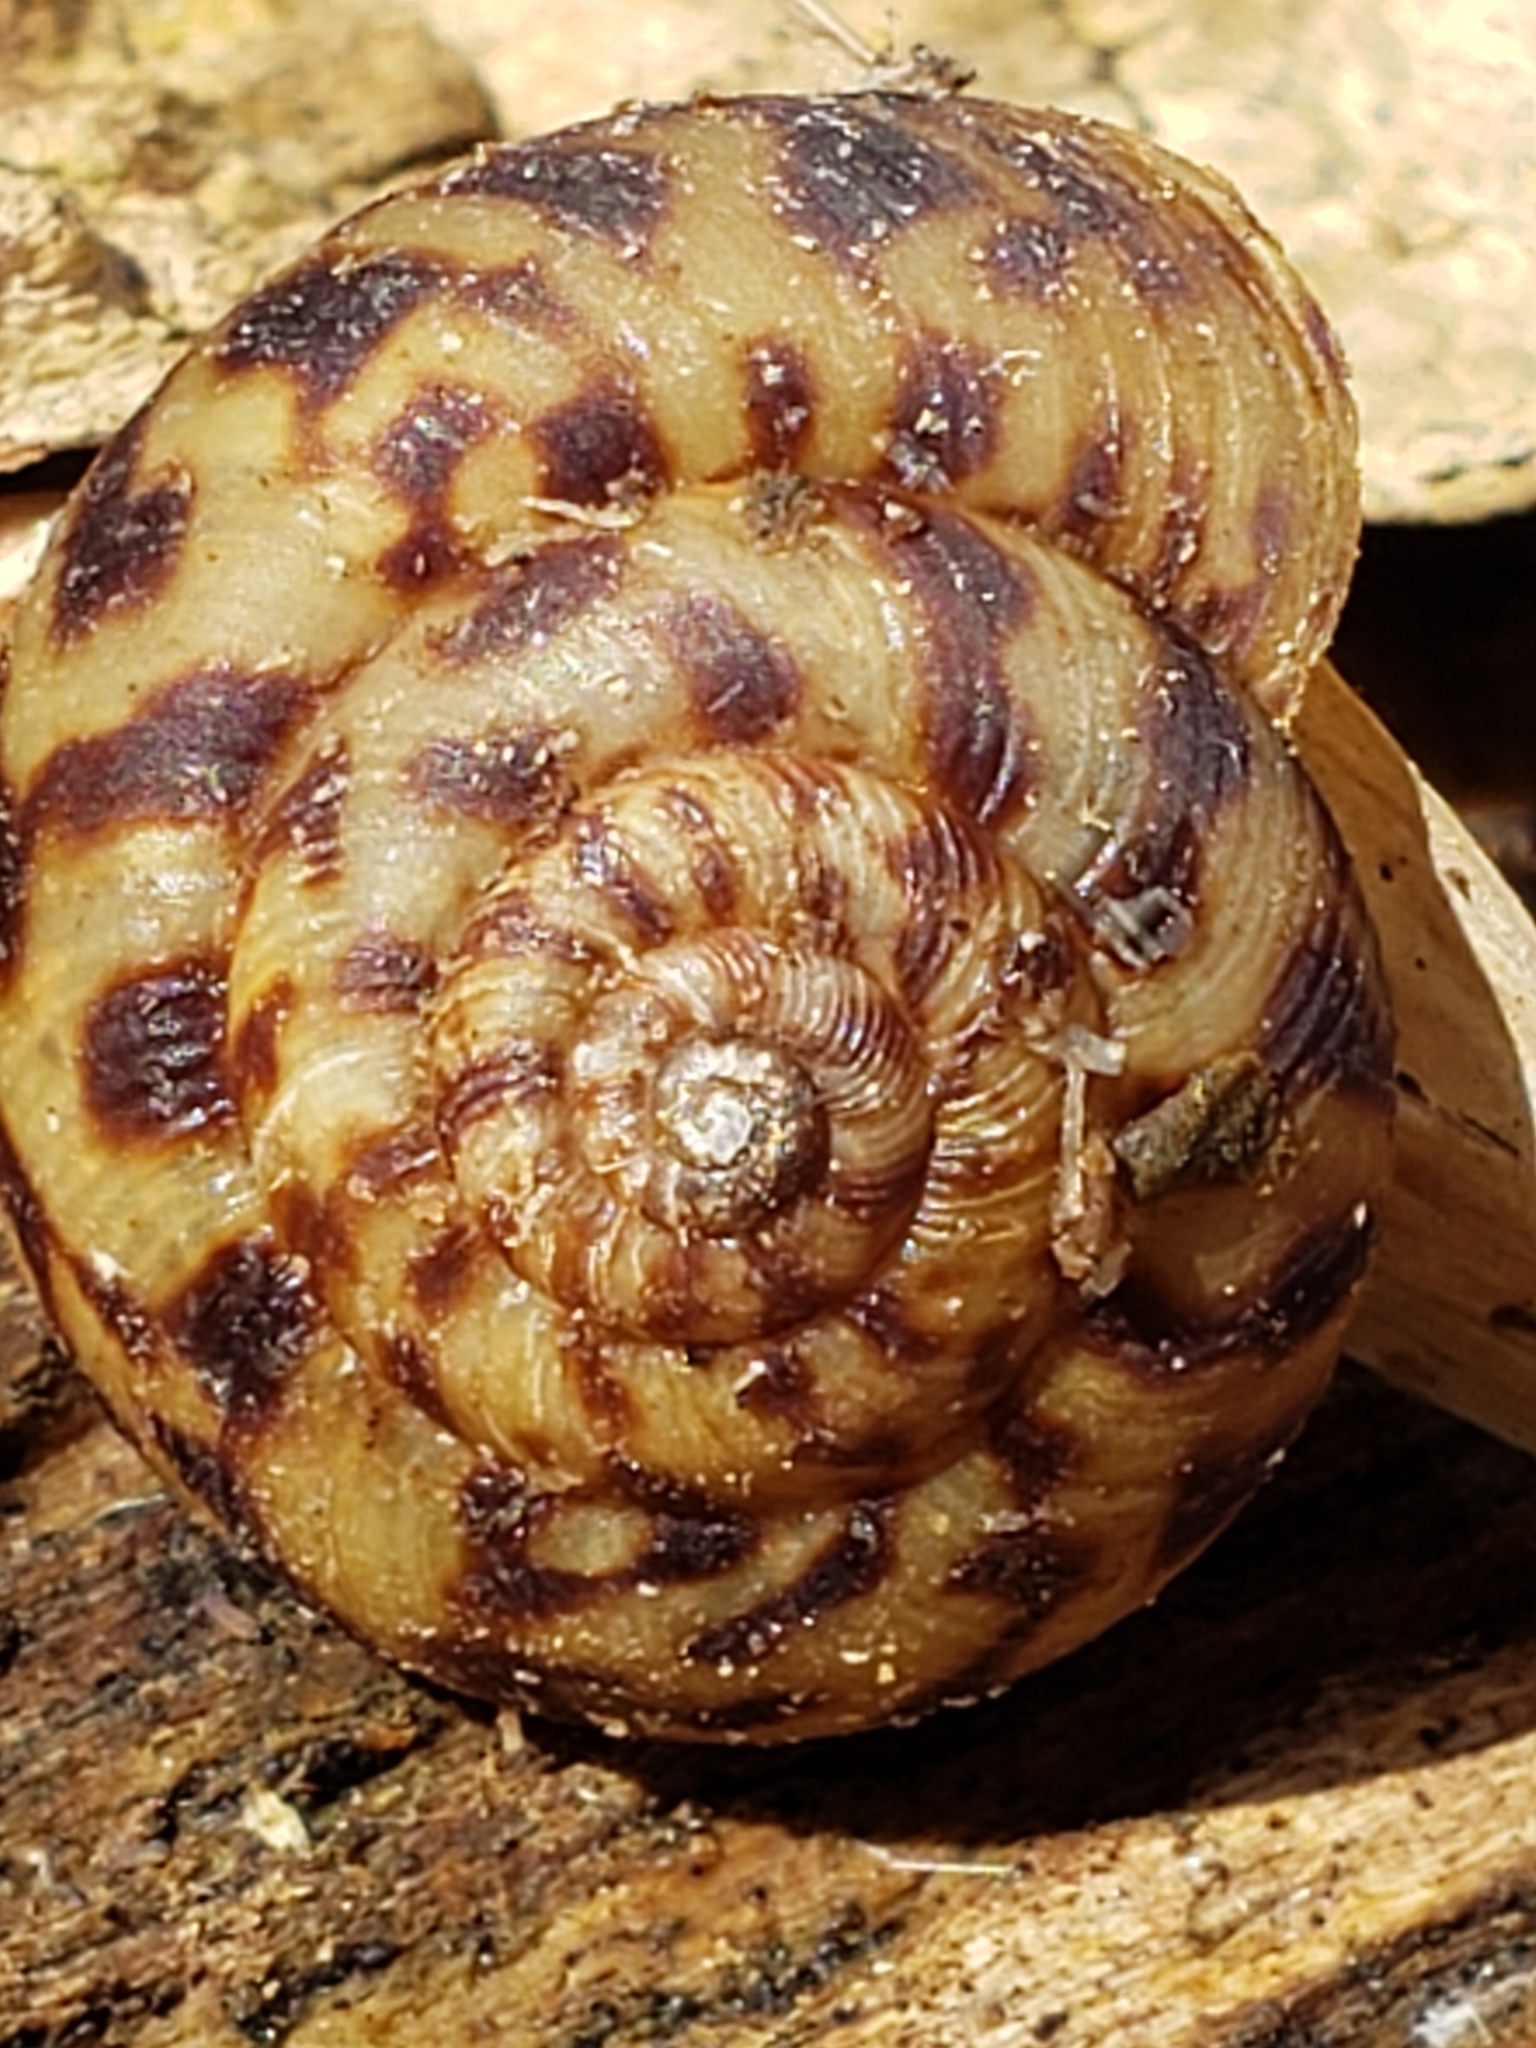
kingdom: Animalia
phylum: Mollusca
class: Gastropoda
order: Stylommatophora
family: Discidae
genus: Anguispira
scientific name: Anguispira fergusoni
